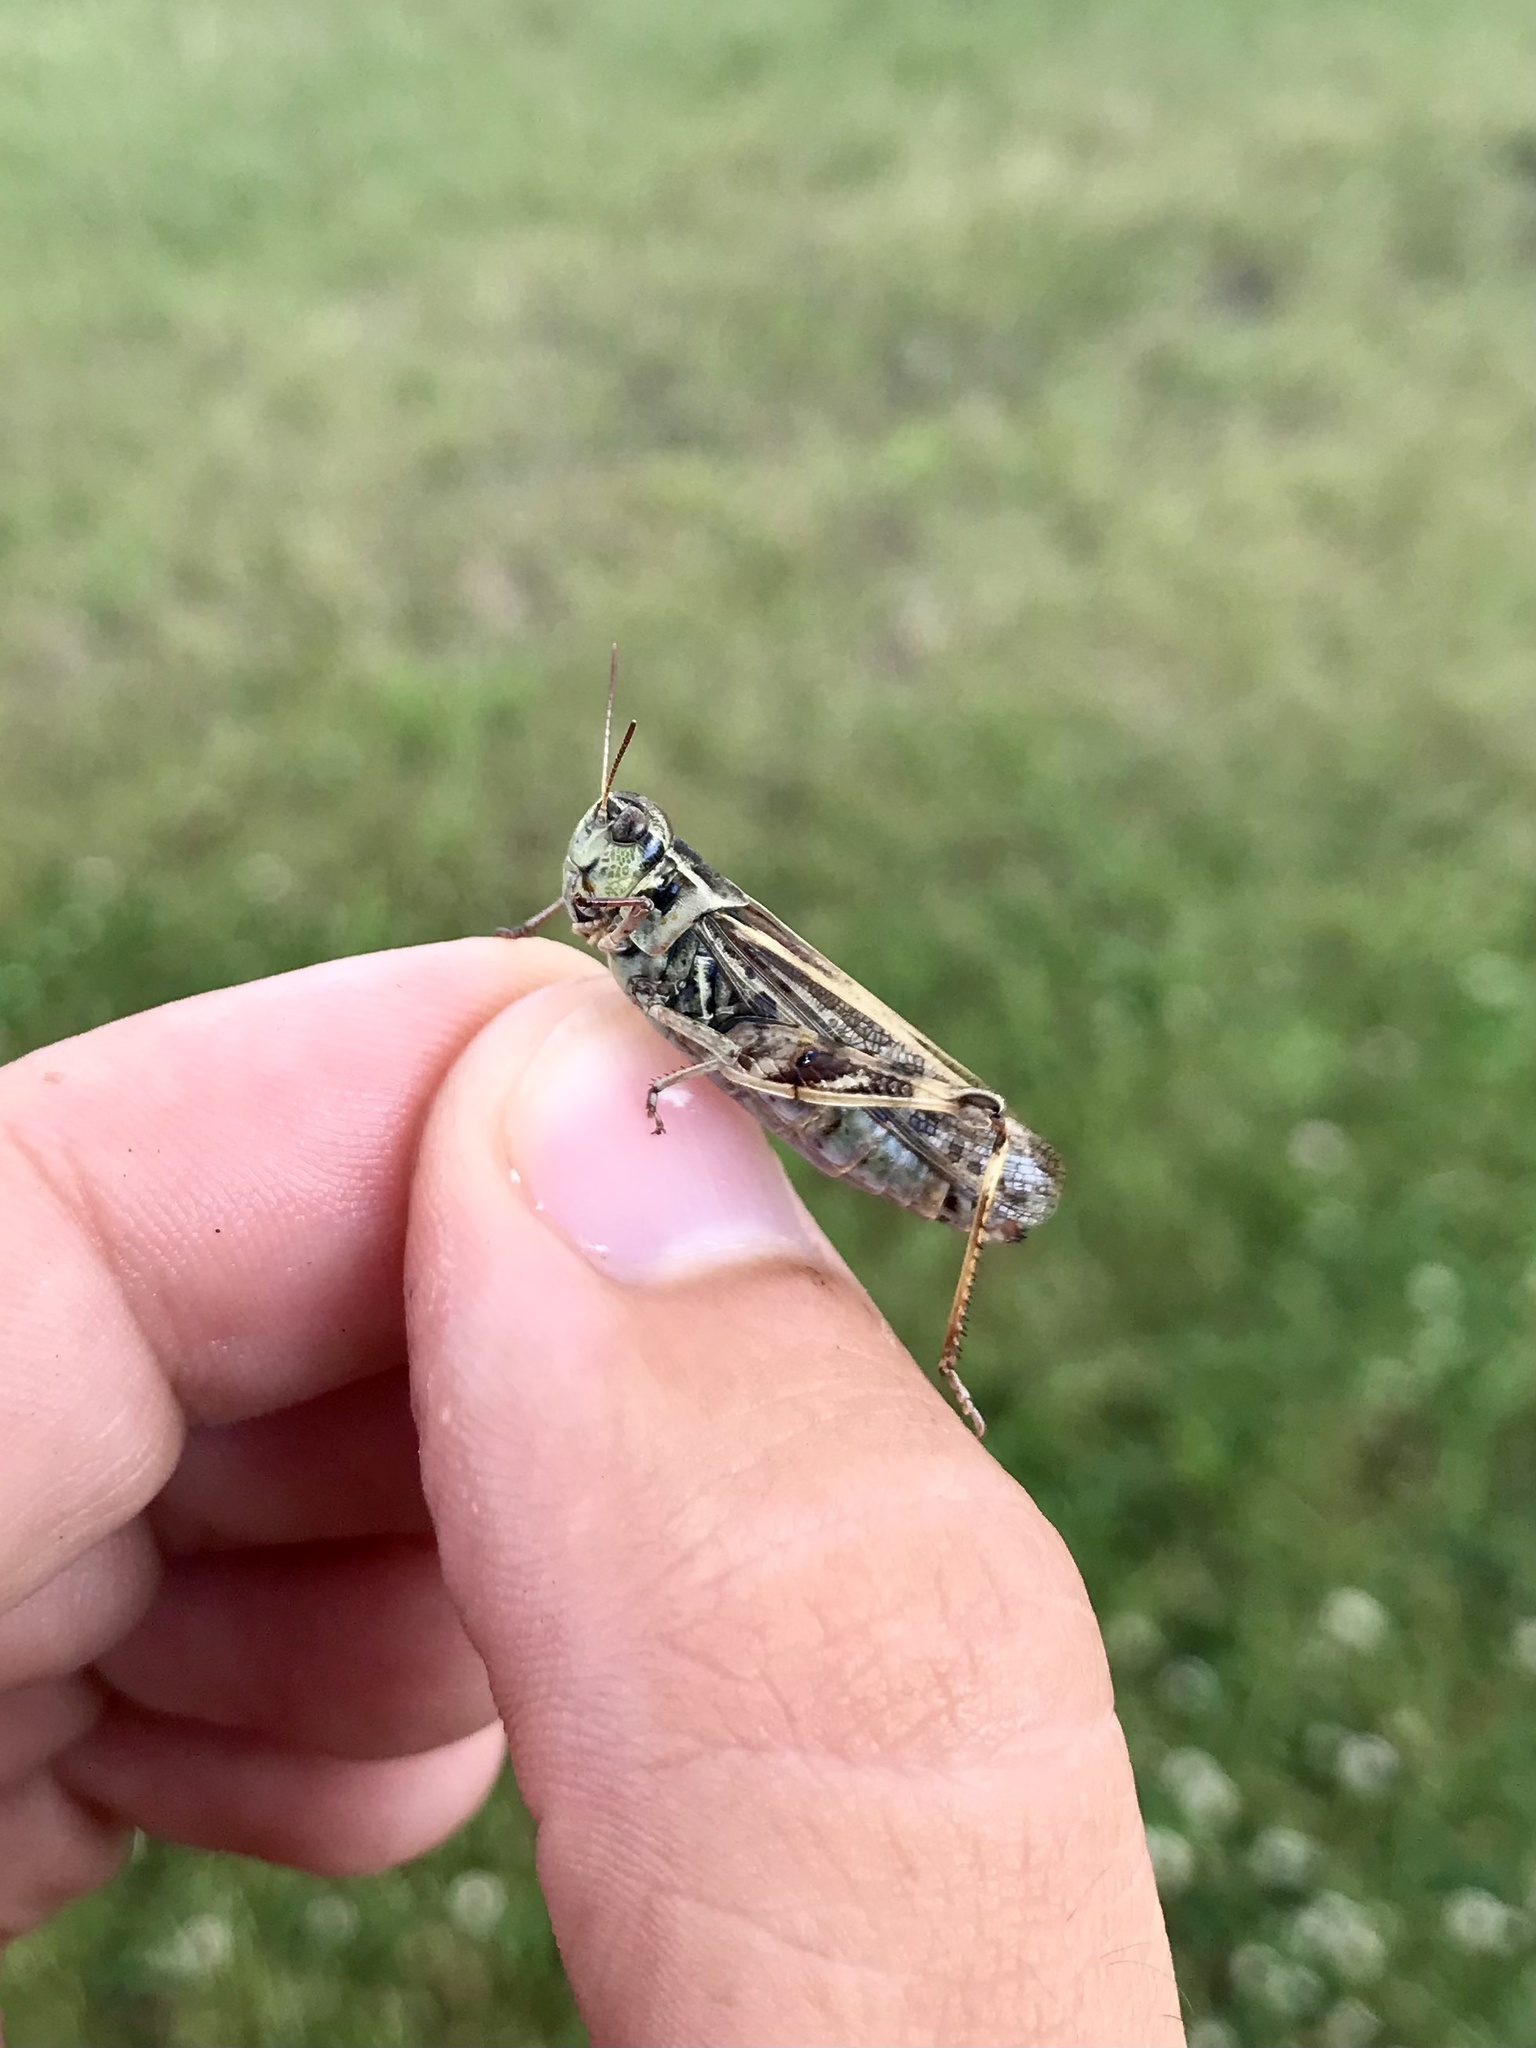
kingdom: Animalia
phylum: Arthropoda
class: Insecta
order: Orthoptera
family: Acrididae
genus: Camnula
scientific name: Camnula pellucida
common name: Clear-winged grasshopper
